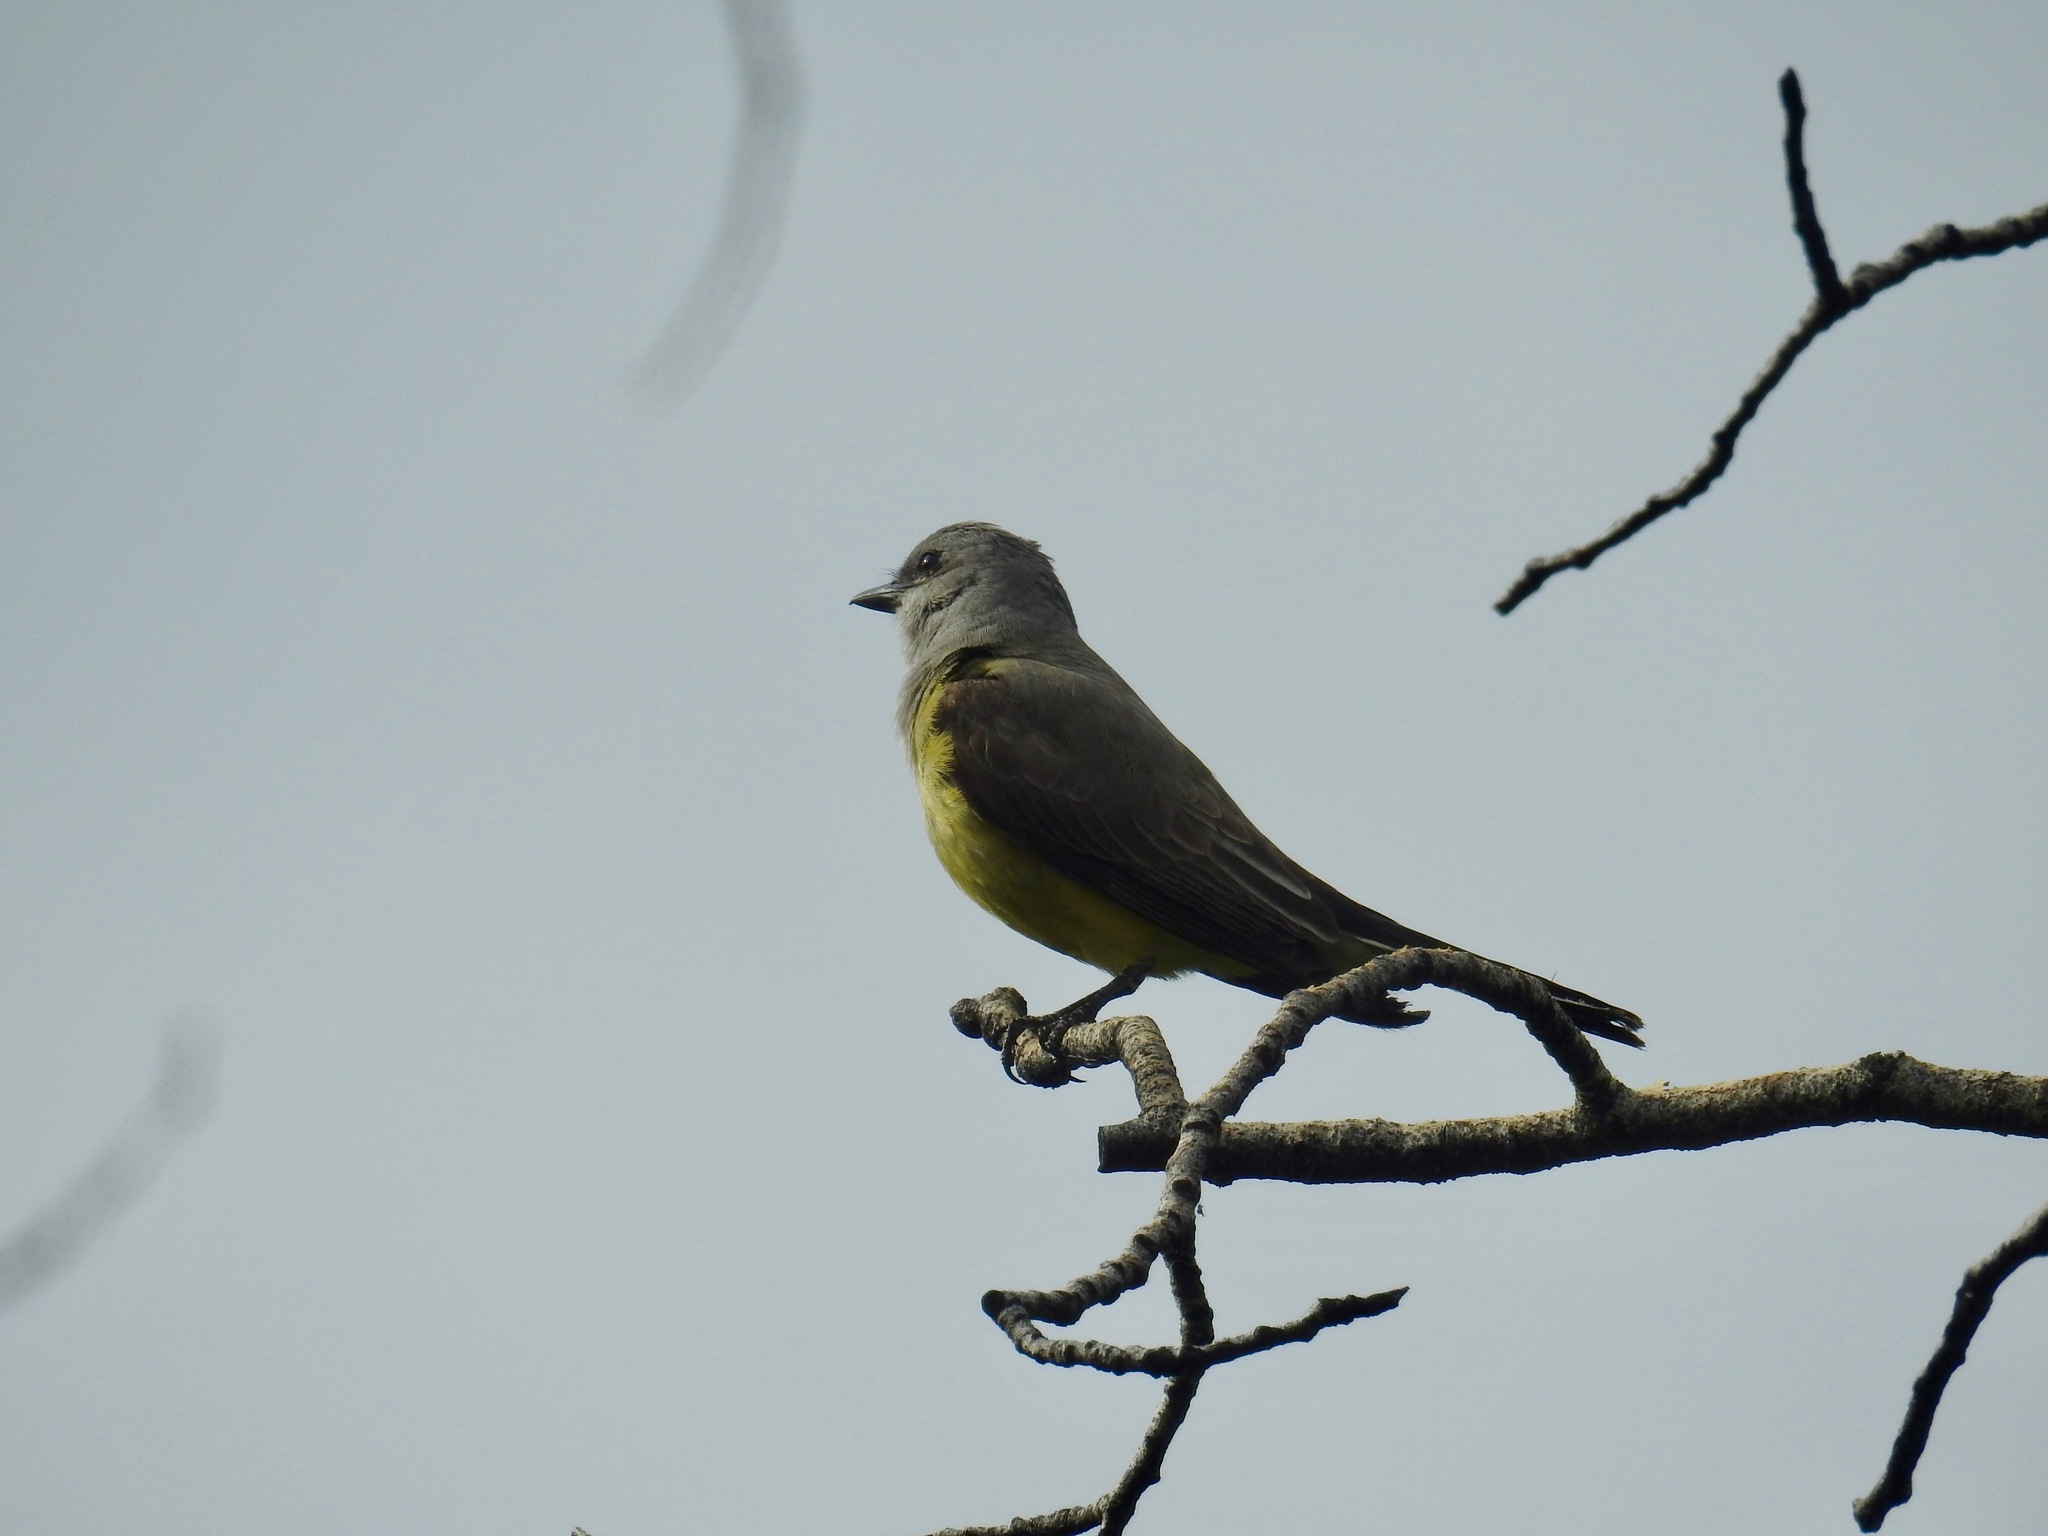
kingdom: Animalia
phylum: Chordata
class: Aves
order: Passeriformes
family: Tyrannidae
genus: Tyrannus
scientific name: Tyrannus verticalis
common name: Western kingbird
